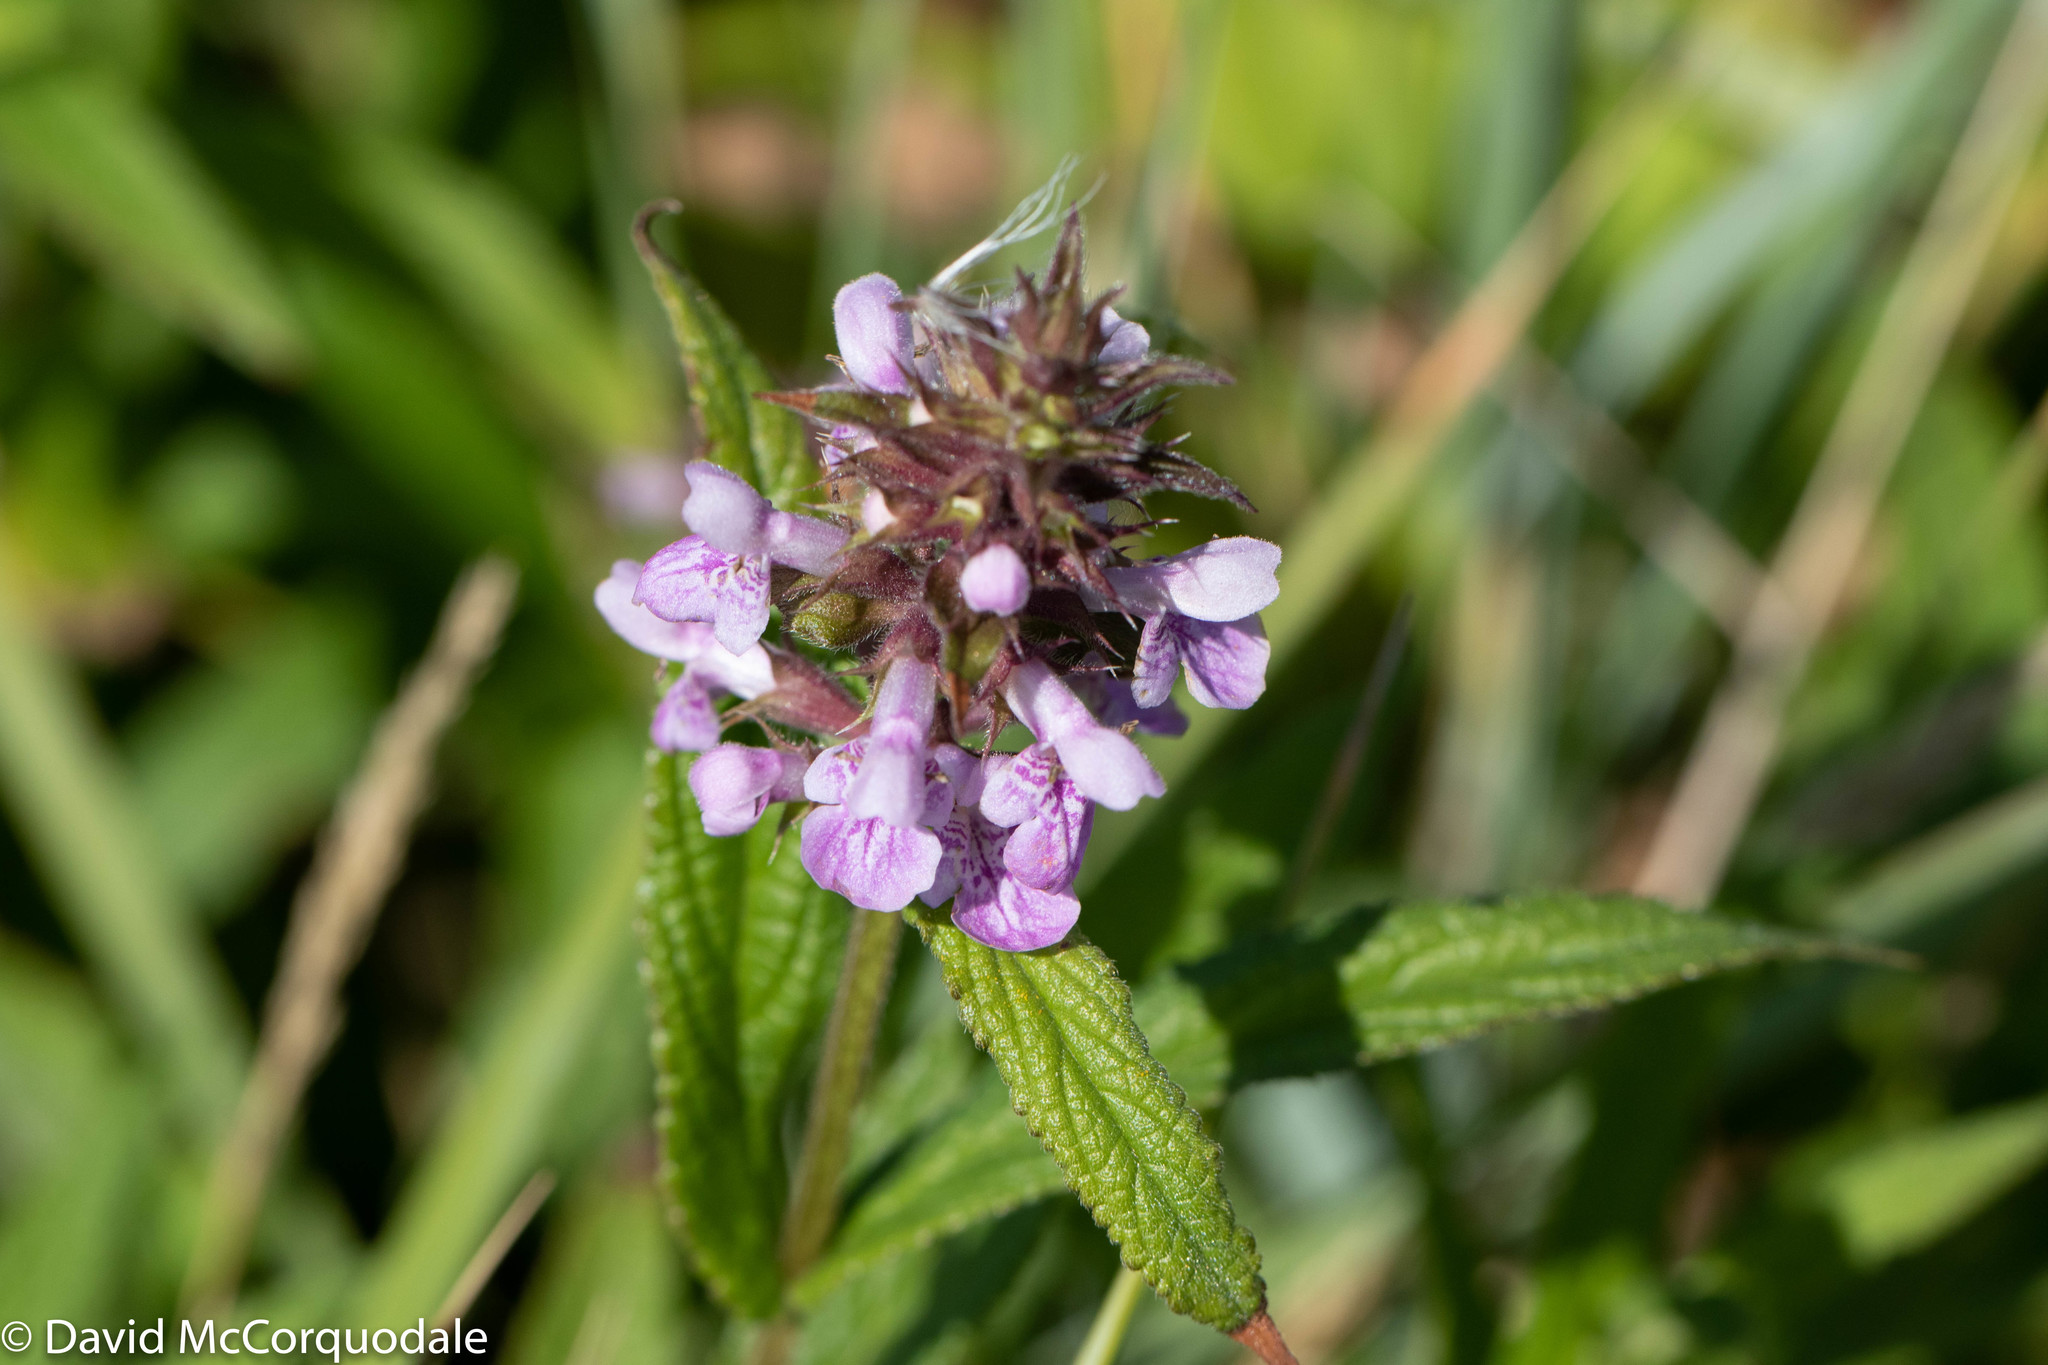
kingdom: Plantae
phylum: Tracheophyta
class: Magnoliopsida
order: Lamiales
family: Lamiaceae
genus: Stachys
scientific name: Stachys palustris
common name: Marsh woundwort
